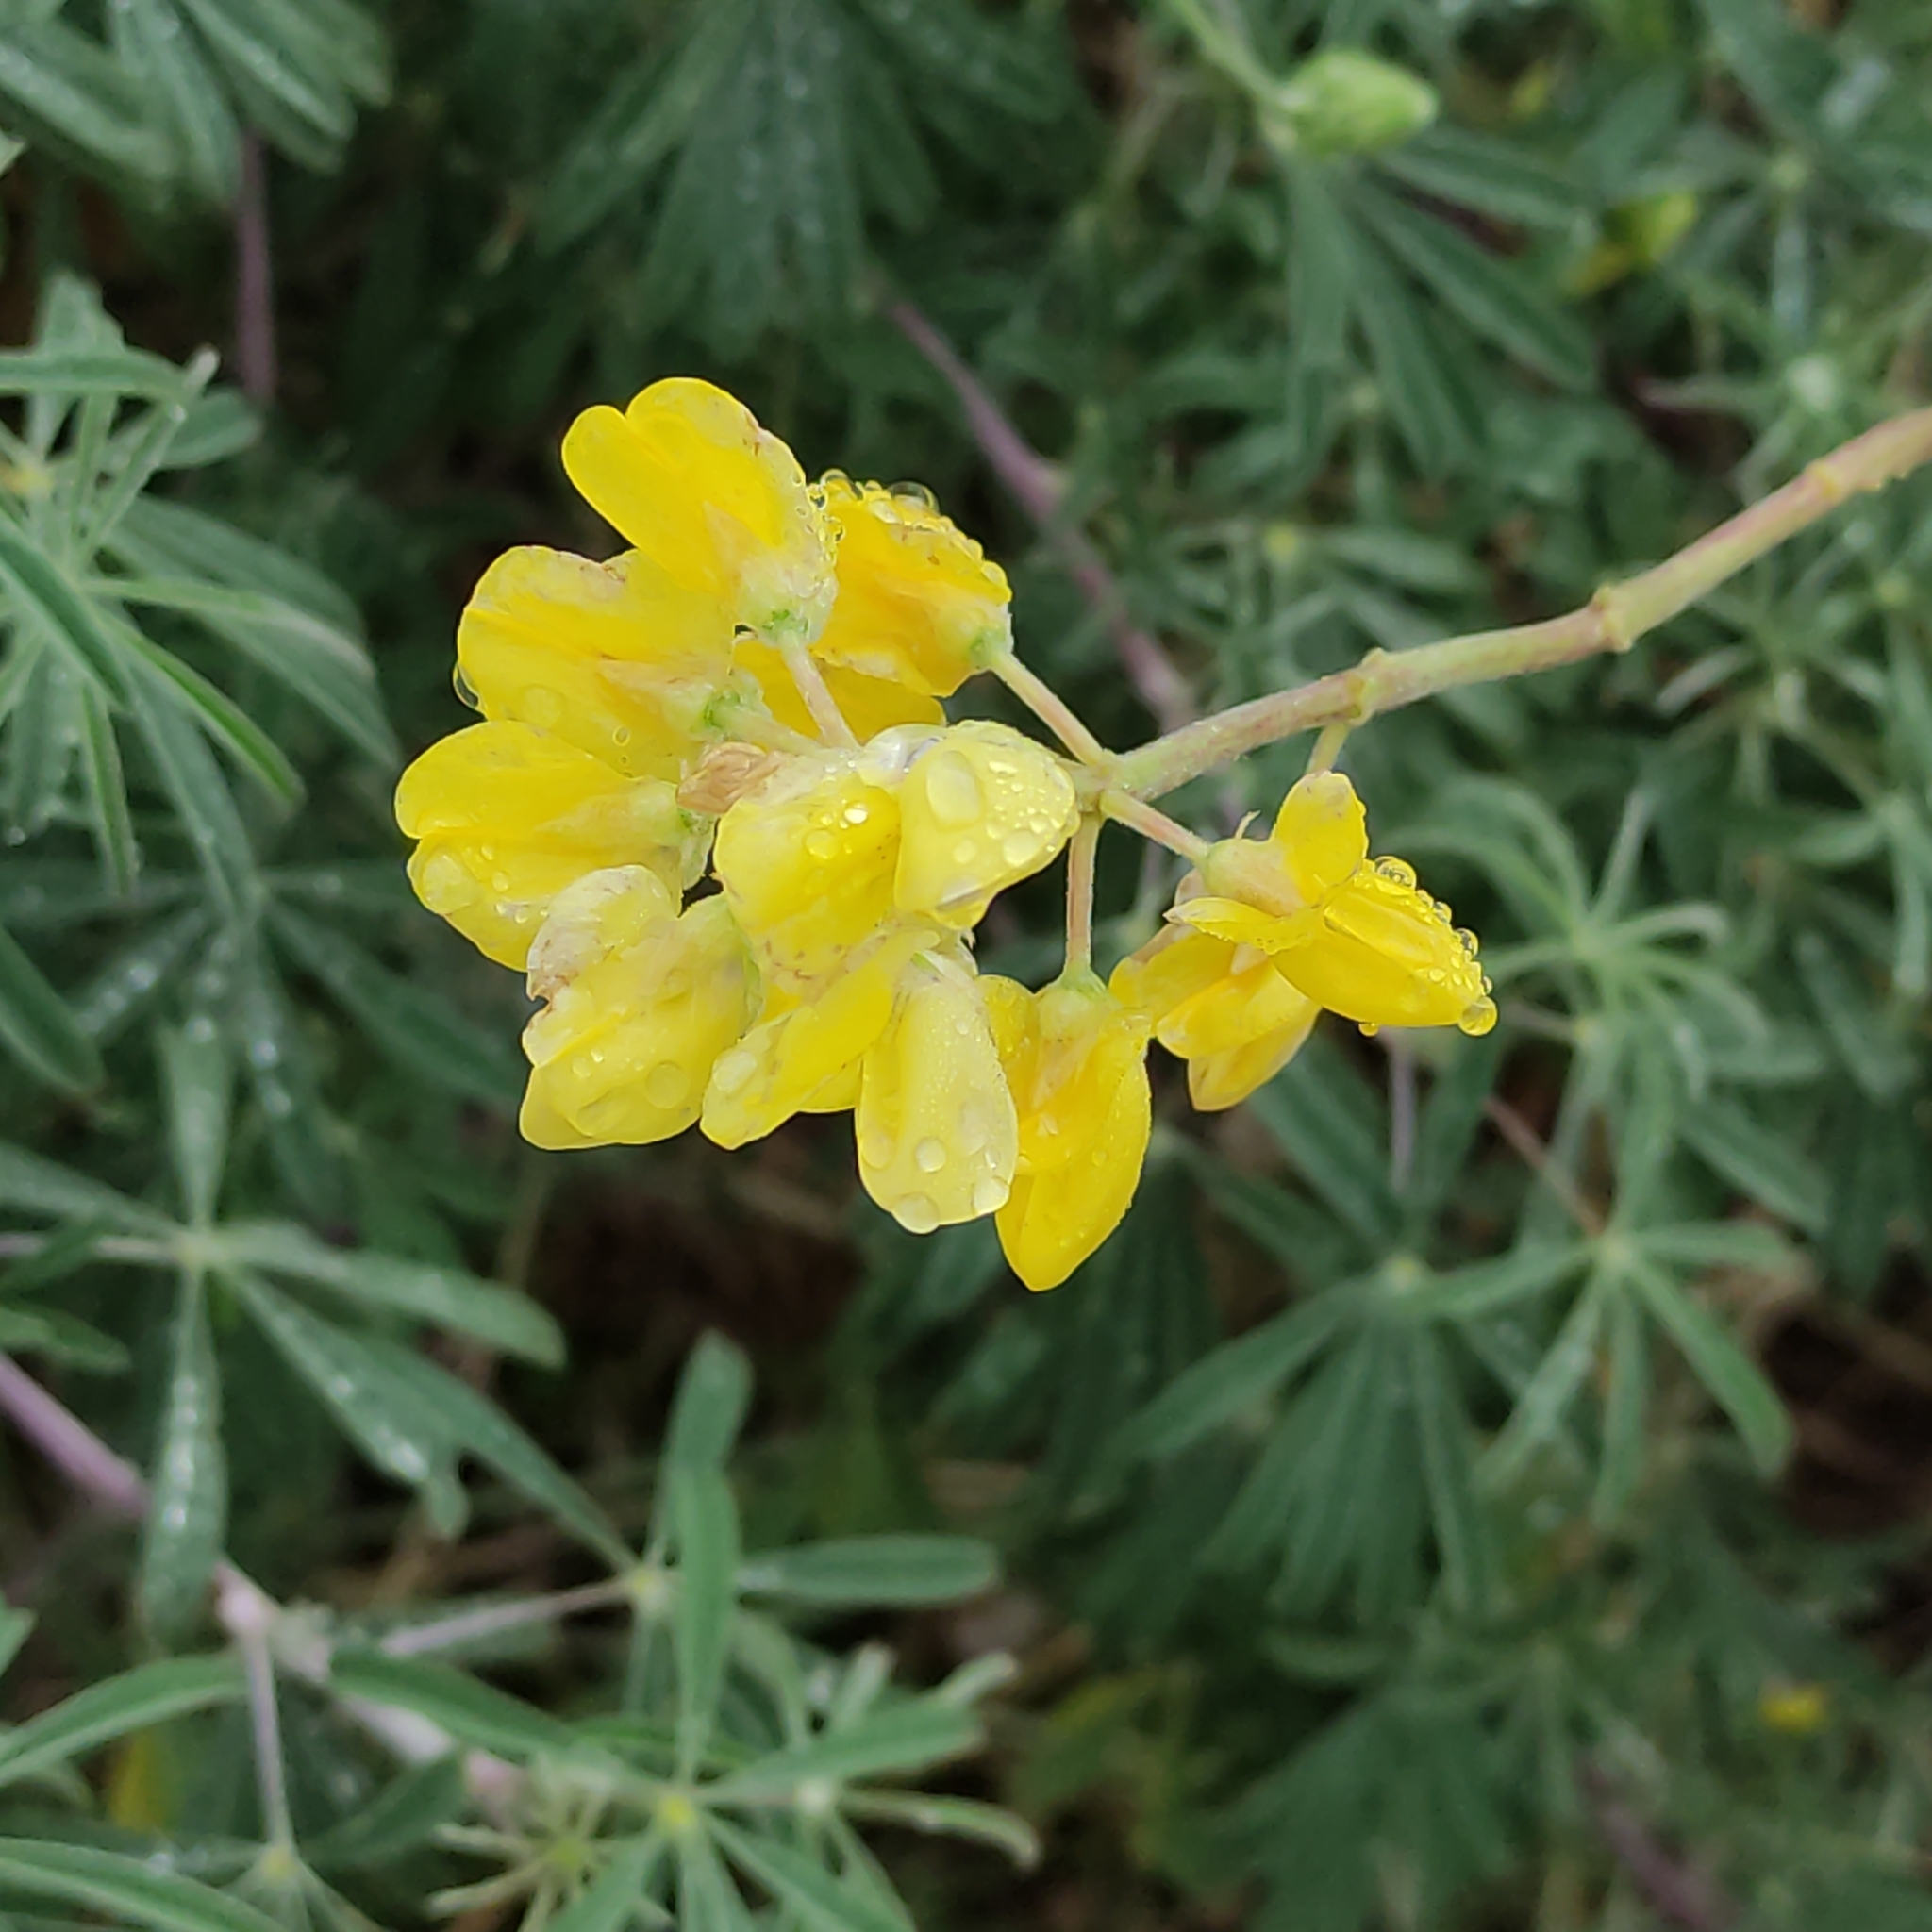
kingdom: Plantae
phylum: Tracheophyta
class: Magnoliopsida
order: Fabales
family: Fabaceae
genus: Lupinus
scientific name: Lupinus arboreus
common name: Yellow bush lupine
